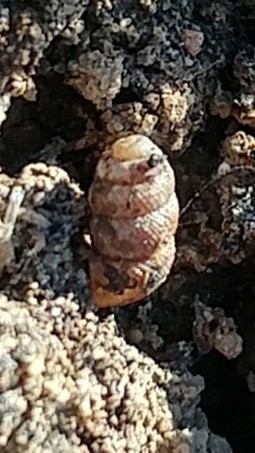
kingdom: Animalia
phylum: Mollusca
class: Gastropoda
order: Stylommatophora
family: Vertiginidae
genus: Vertigo
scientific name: Vertigo californica
